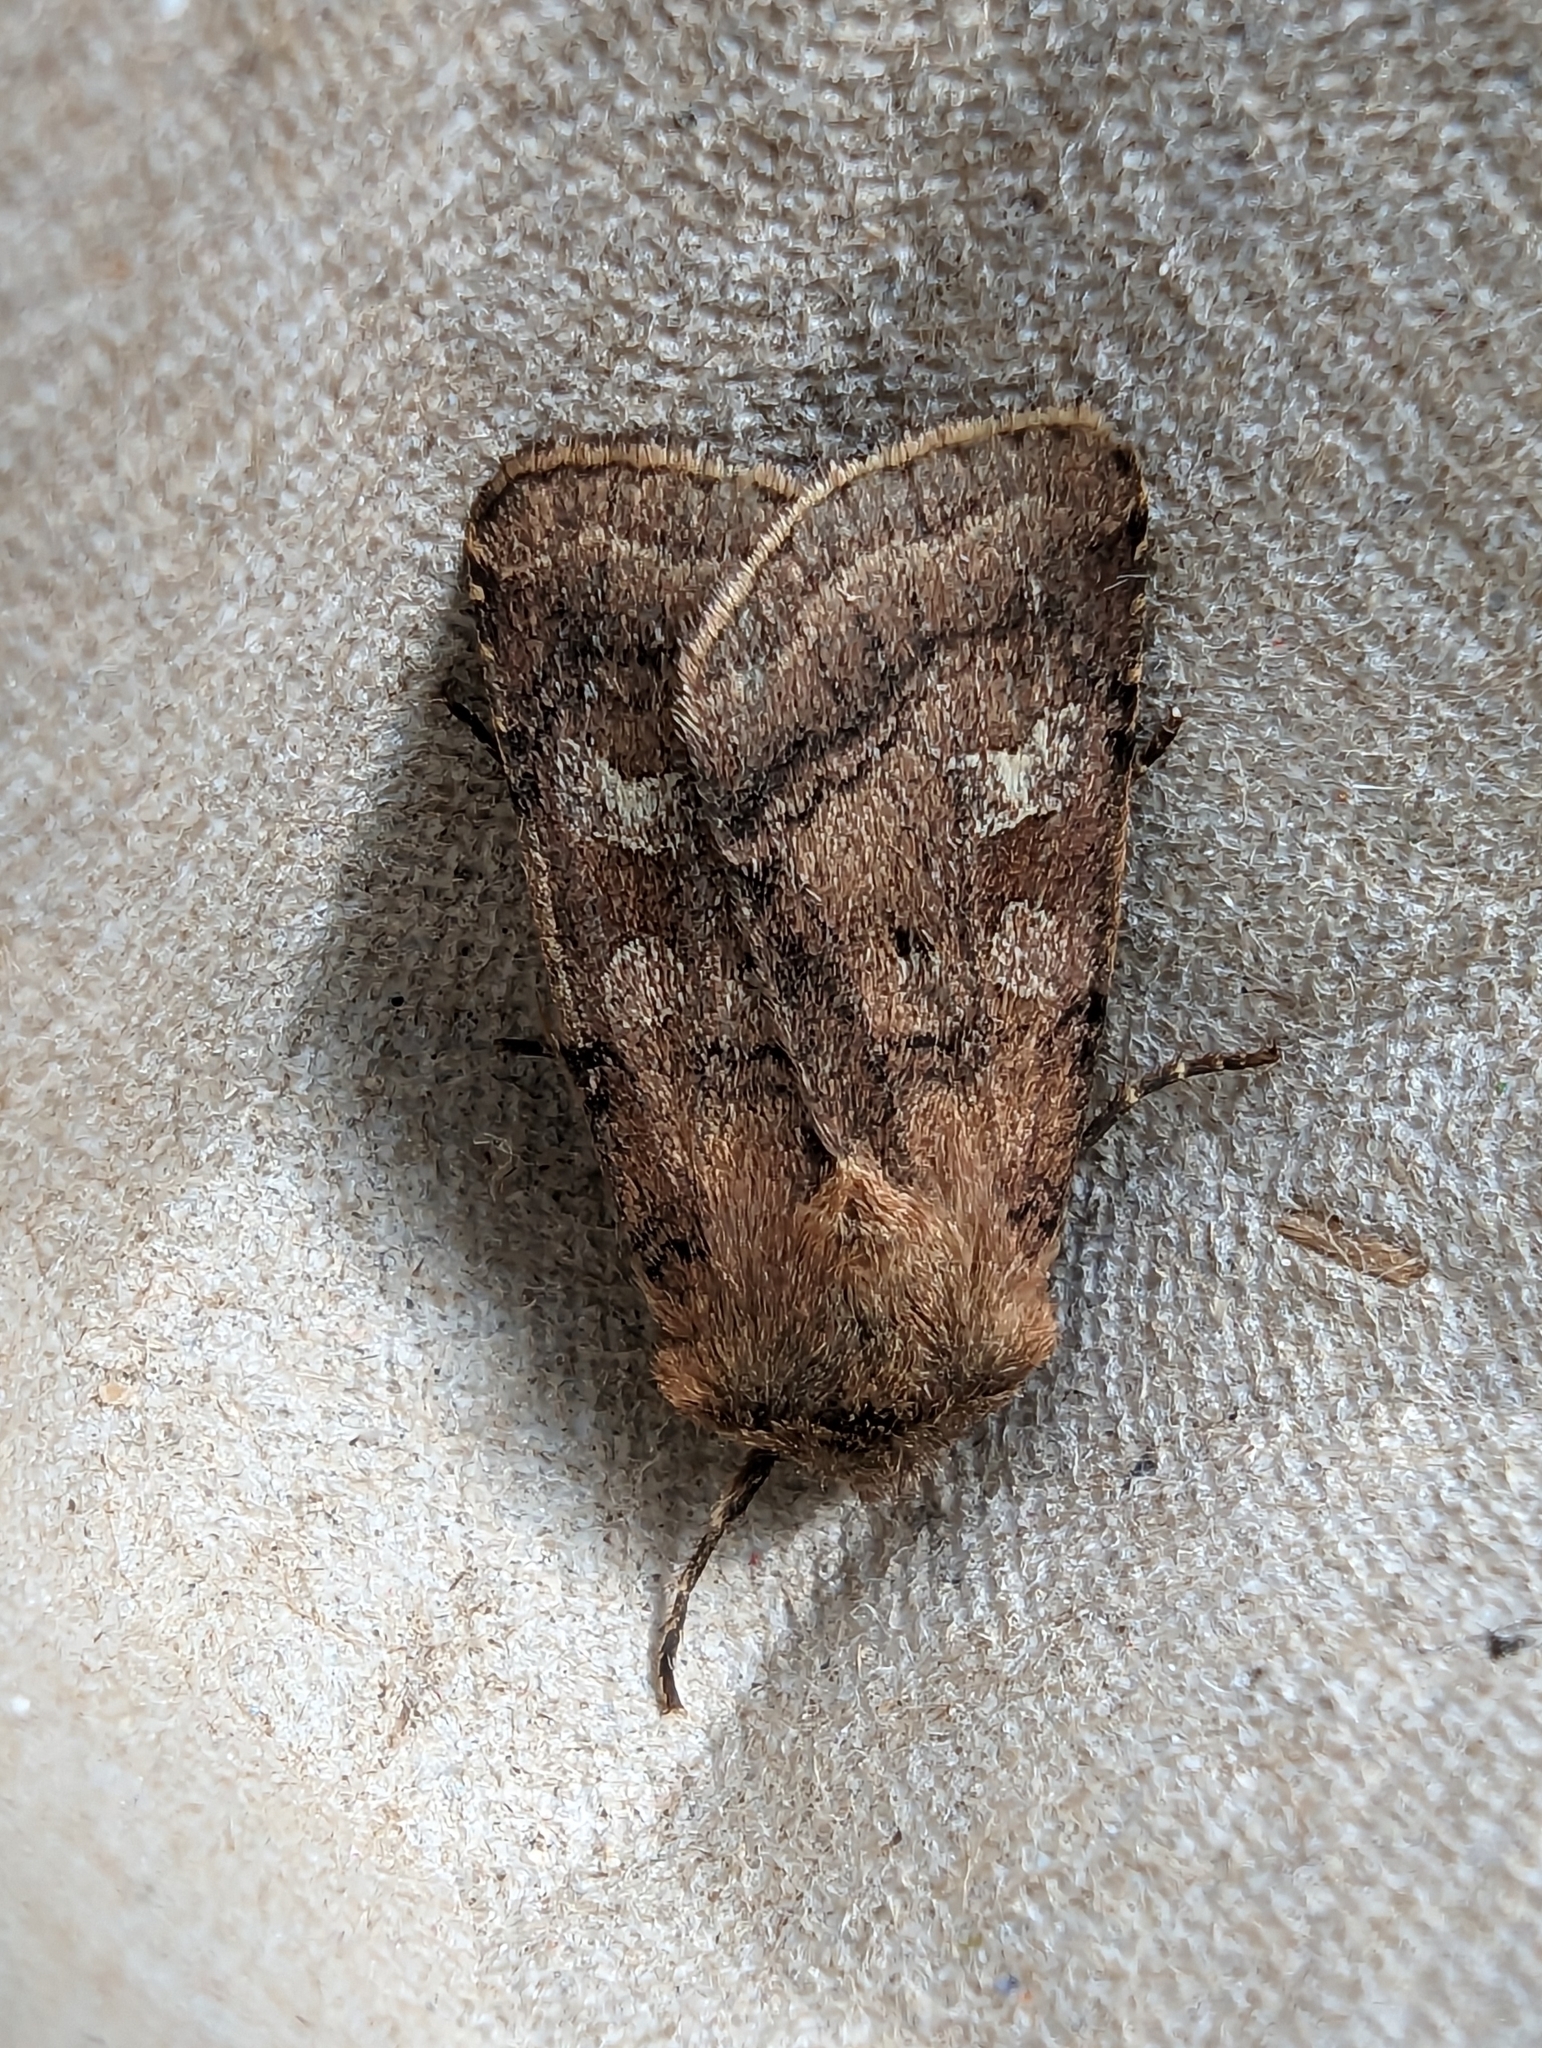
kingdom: Animalia
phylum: Arthropoda
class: Insecta
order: Lepidoptera
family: Noctuidae
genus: Diarsia
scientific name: Diarsia rubi
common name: Small square-spot
